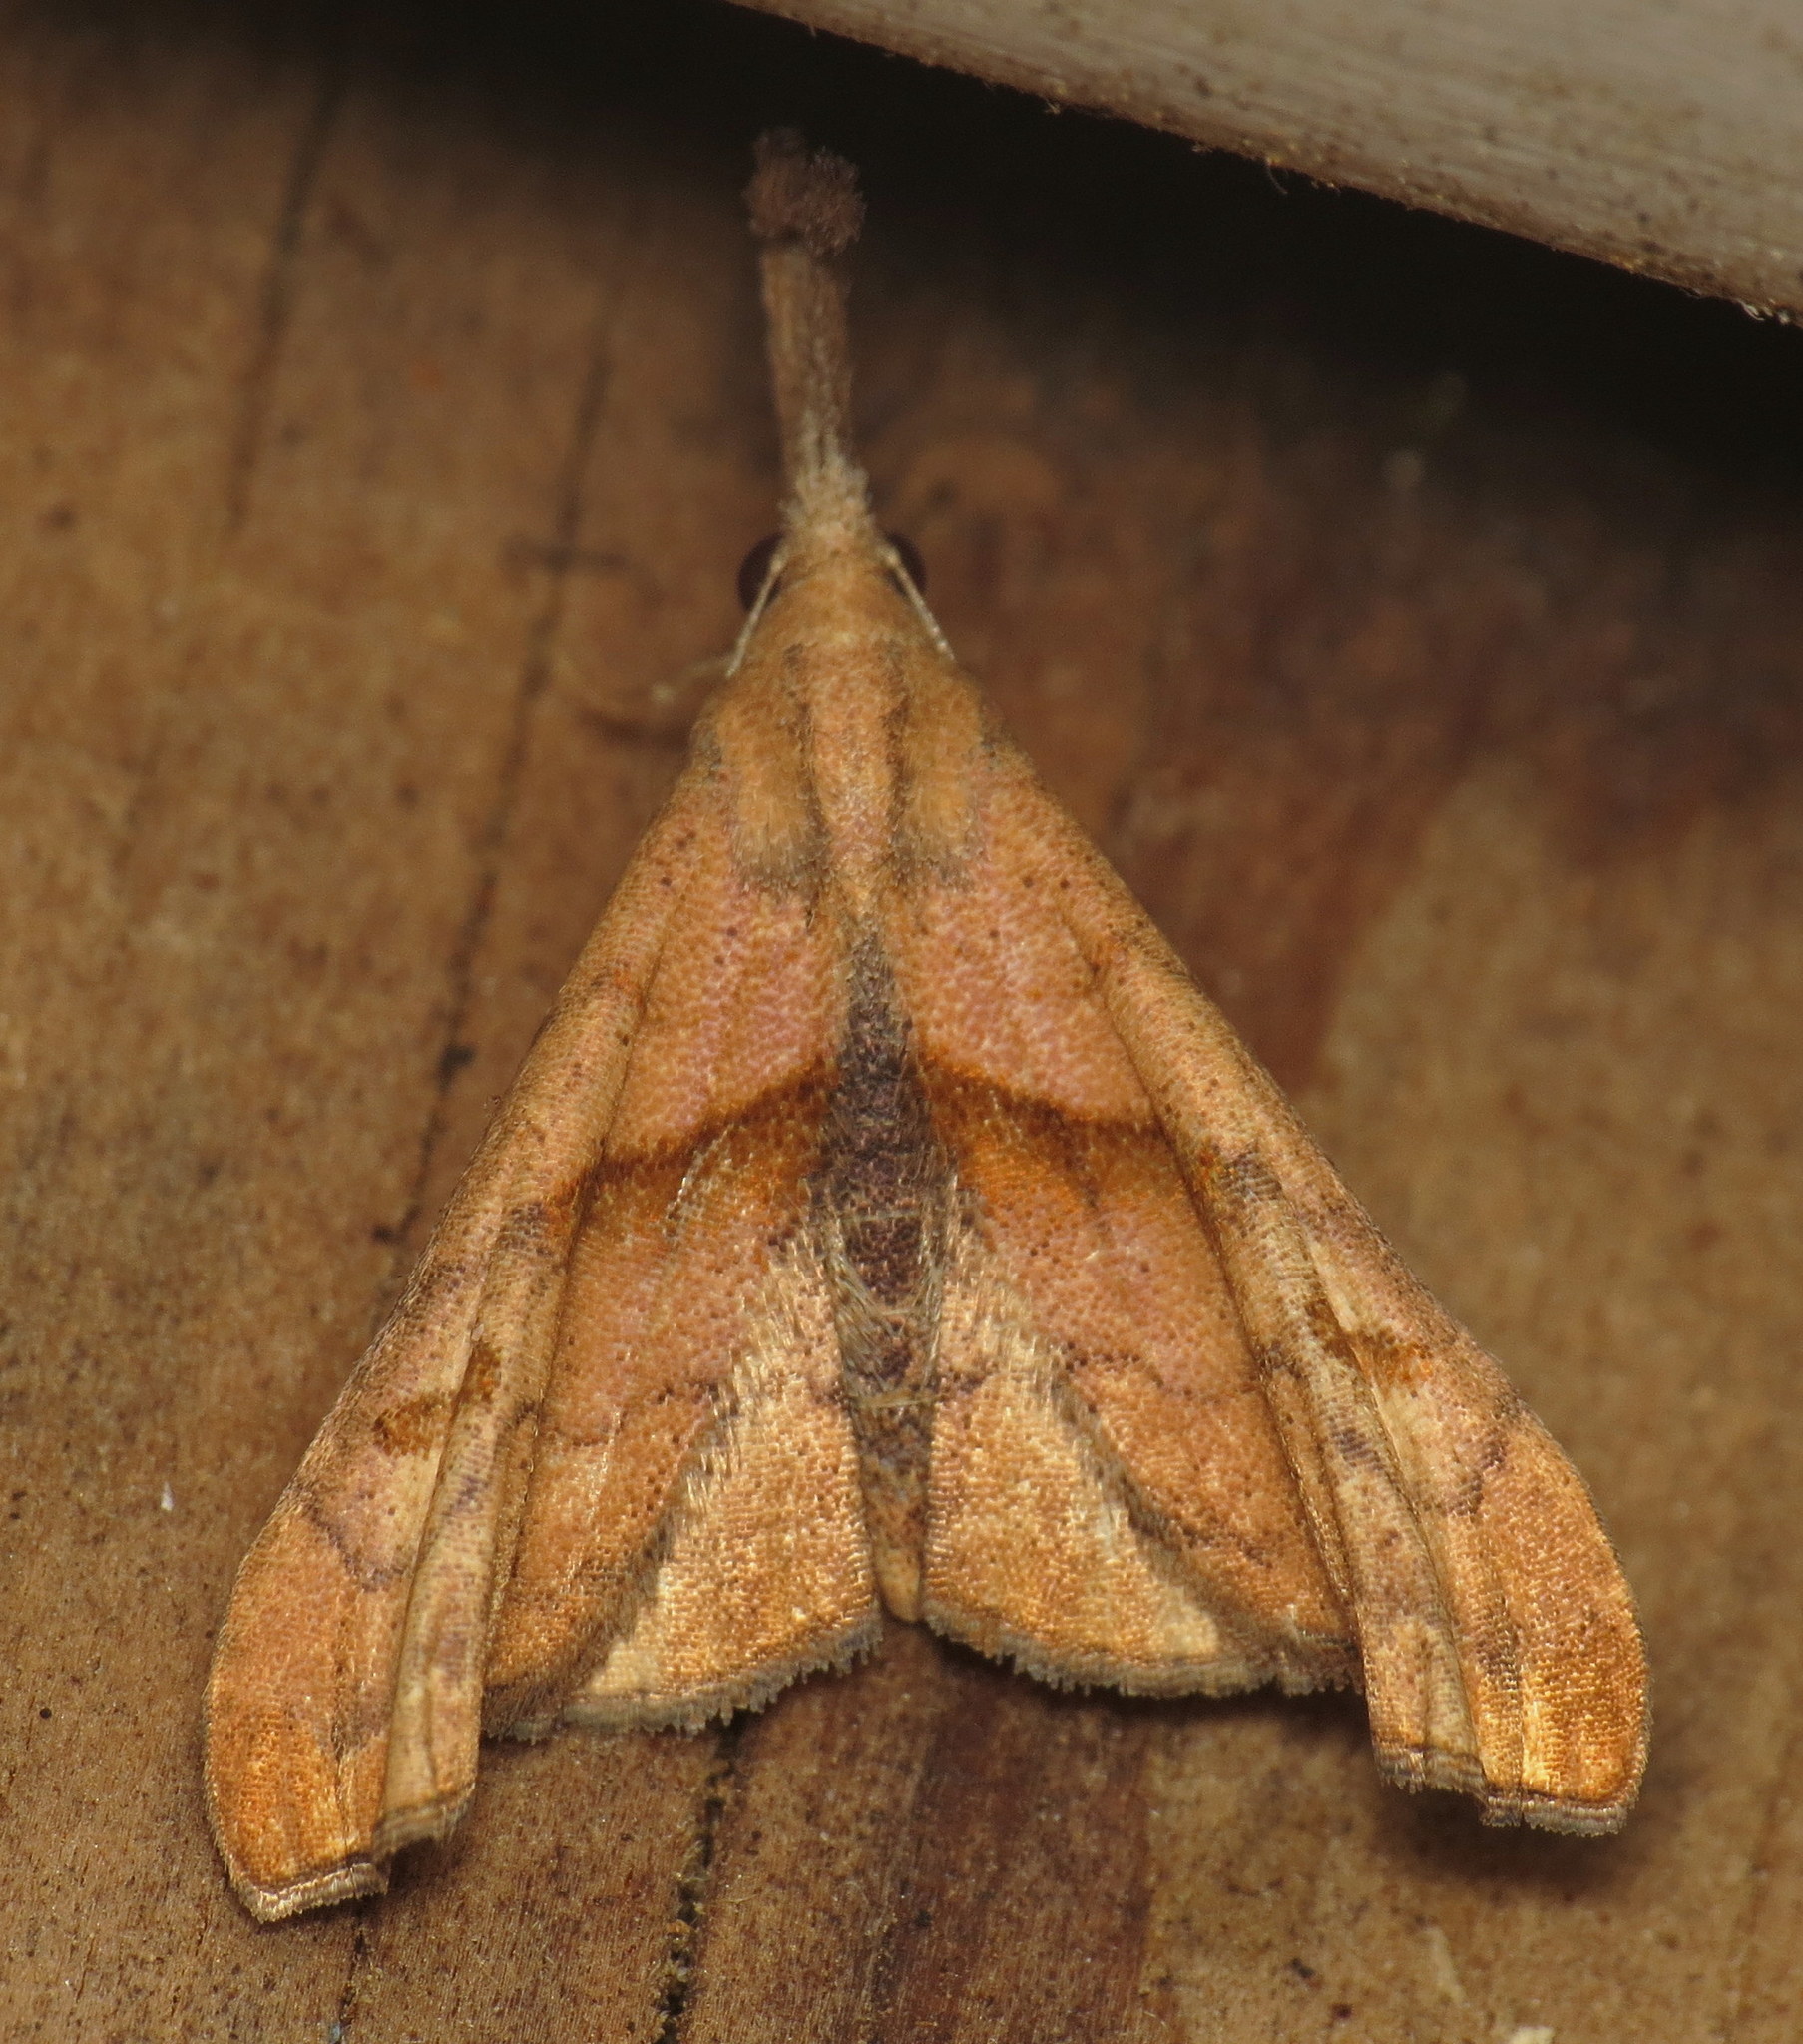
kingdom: Animalia
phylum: Arthropoda
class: Insecta
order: Lepidoptera
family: Erebidae
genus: Palthis
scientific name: Palthis angulalis
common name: Dark-spotted palthis moth
